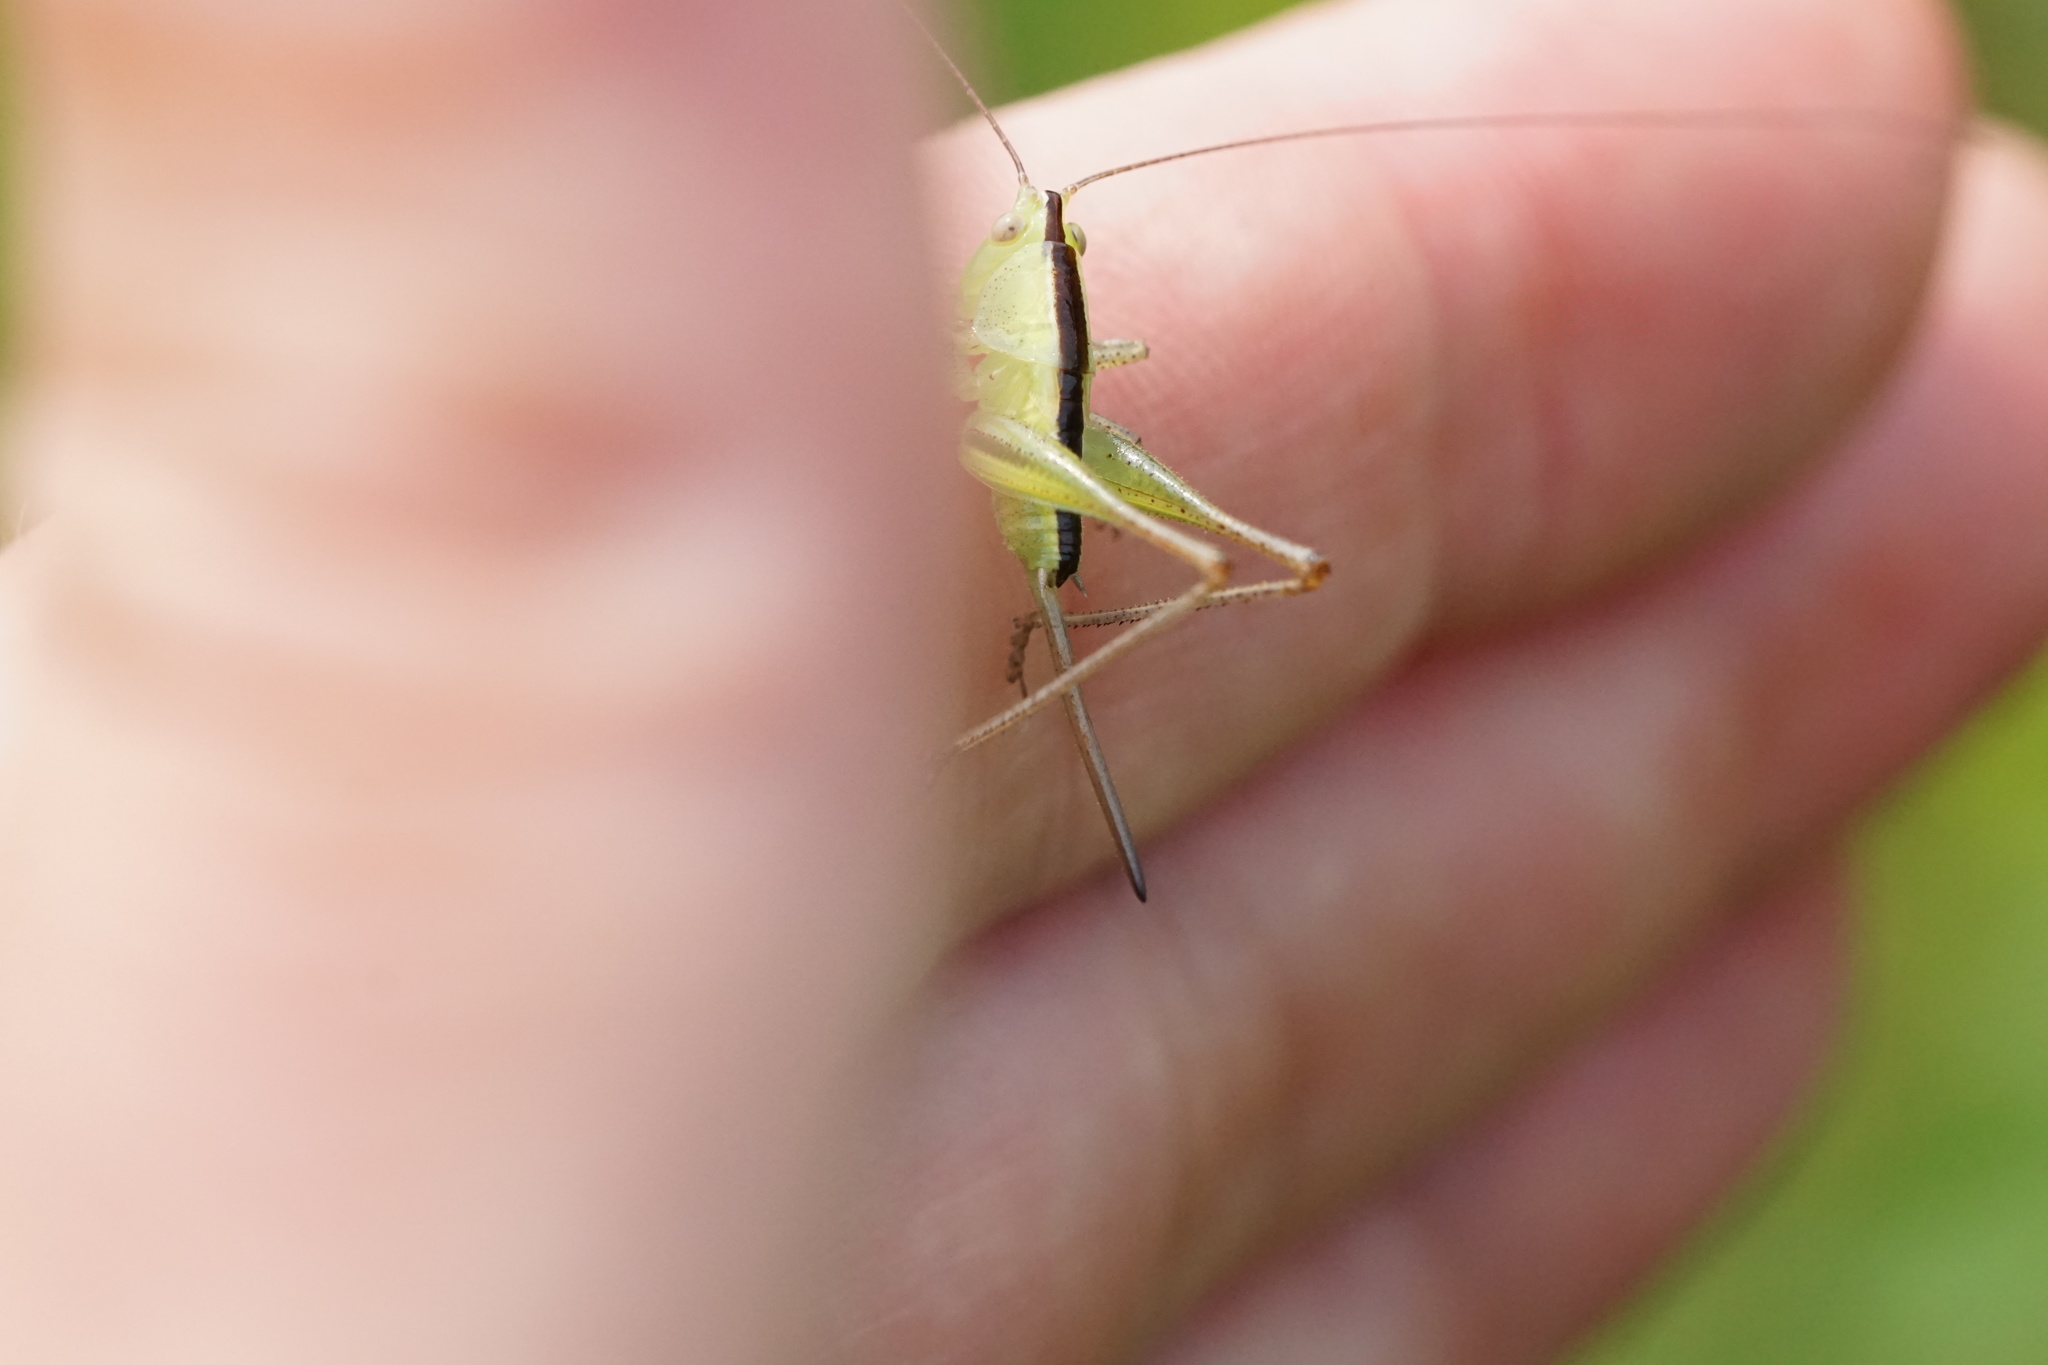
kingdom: Animalia
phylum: Arthropoda
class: Insecta
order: Orthoptera
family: Tettigoniidae
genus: Conocephalus
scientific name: Conocephalus strictus
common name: Straight-lanced katydid
